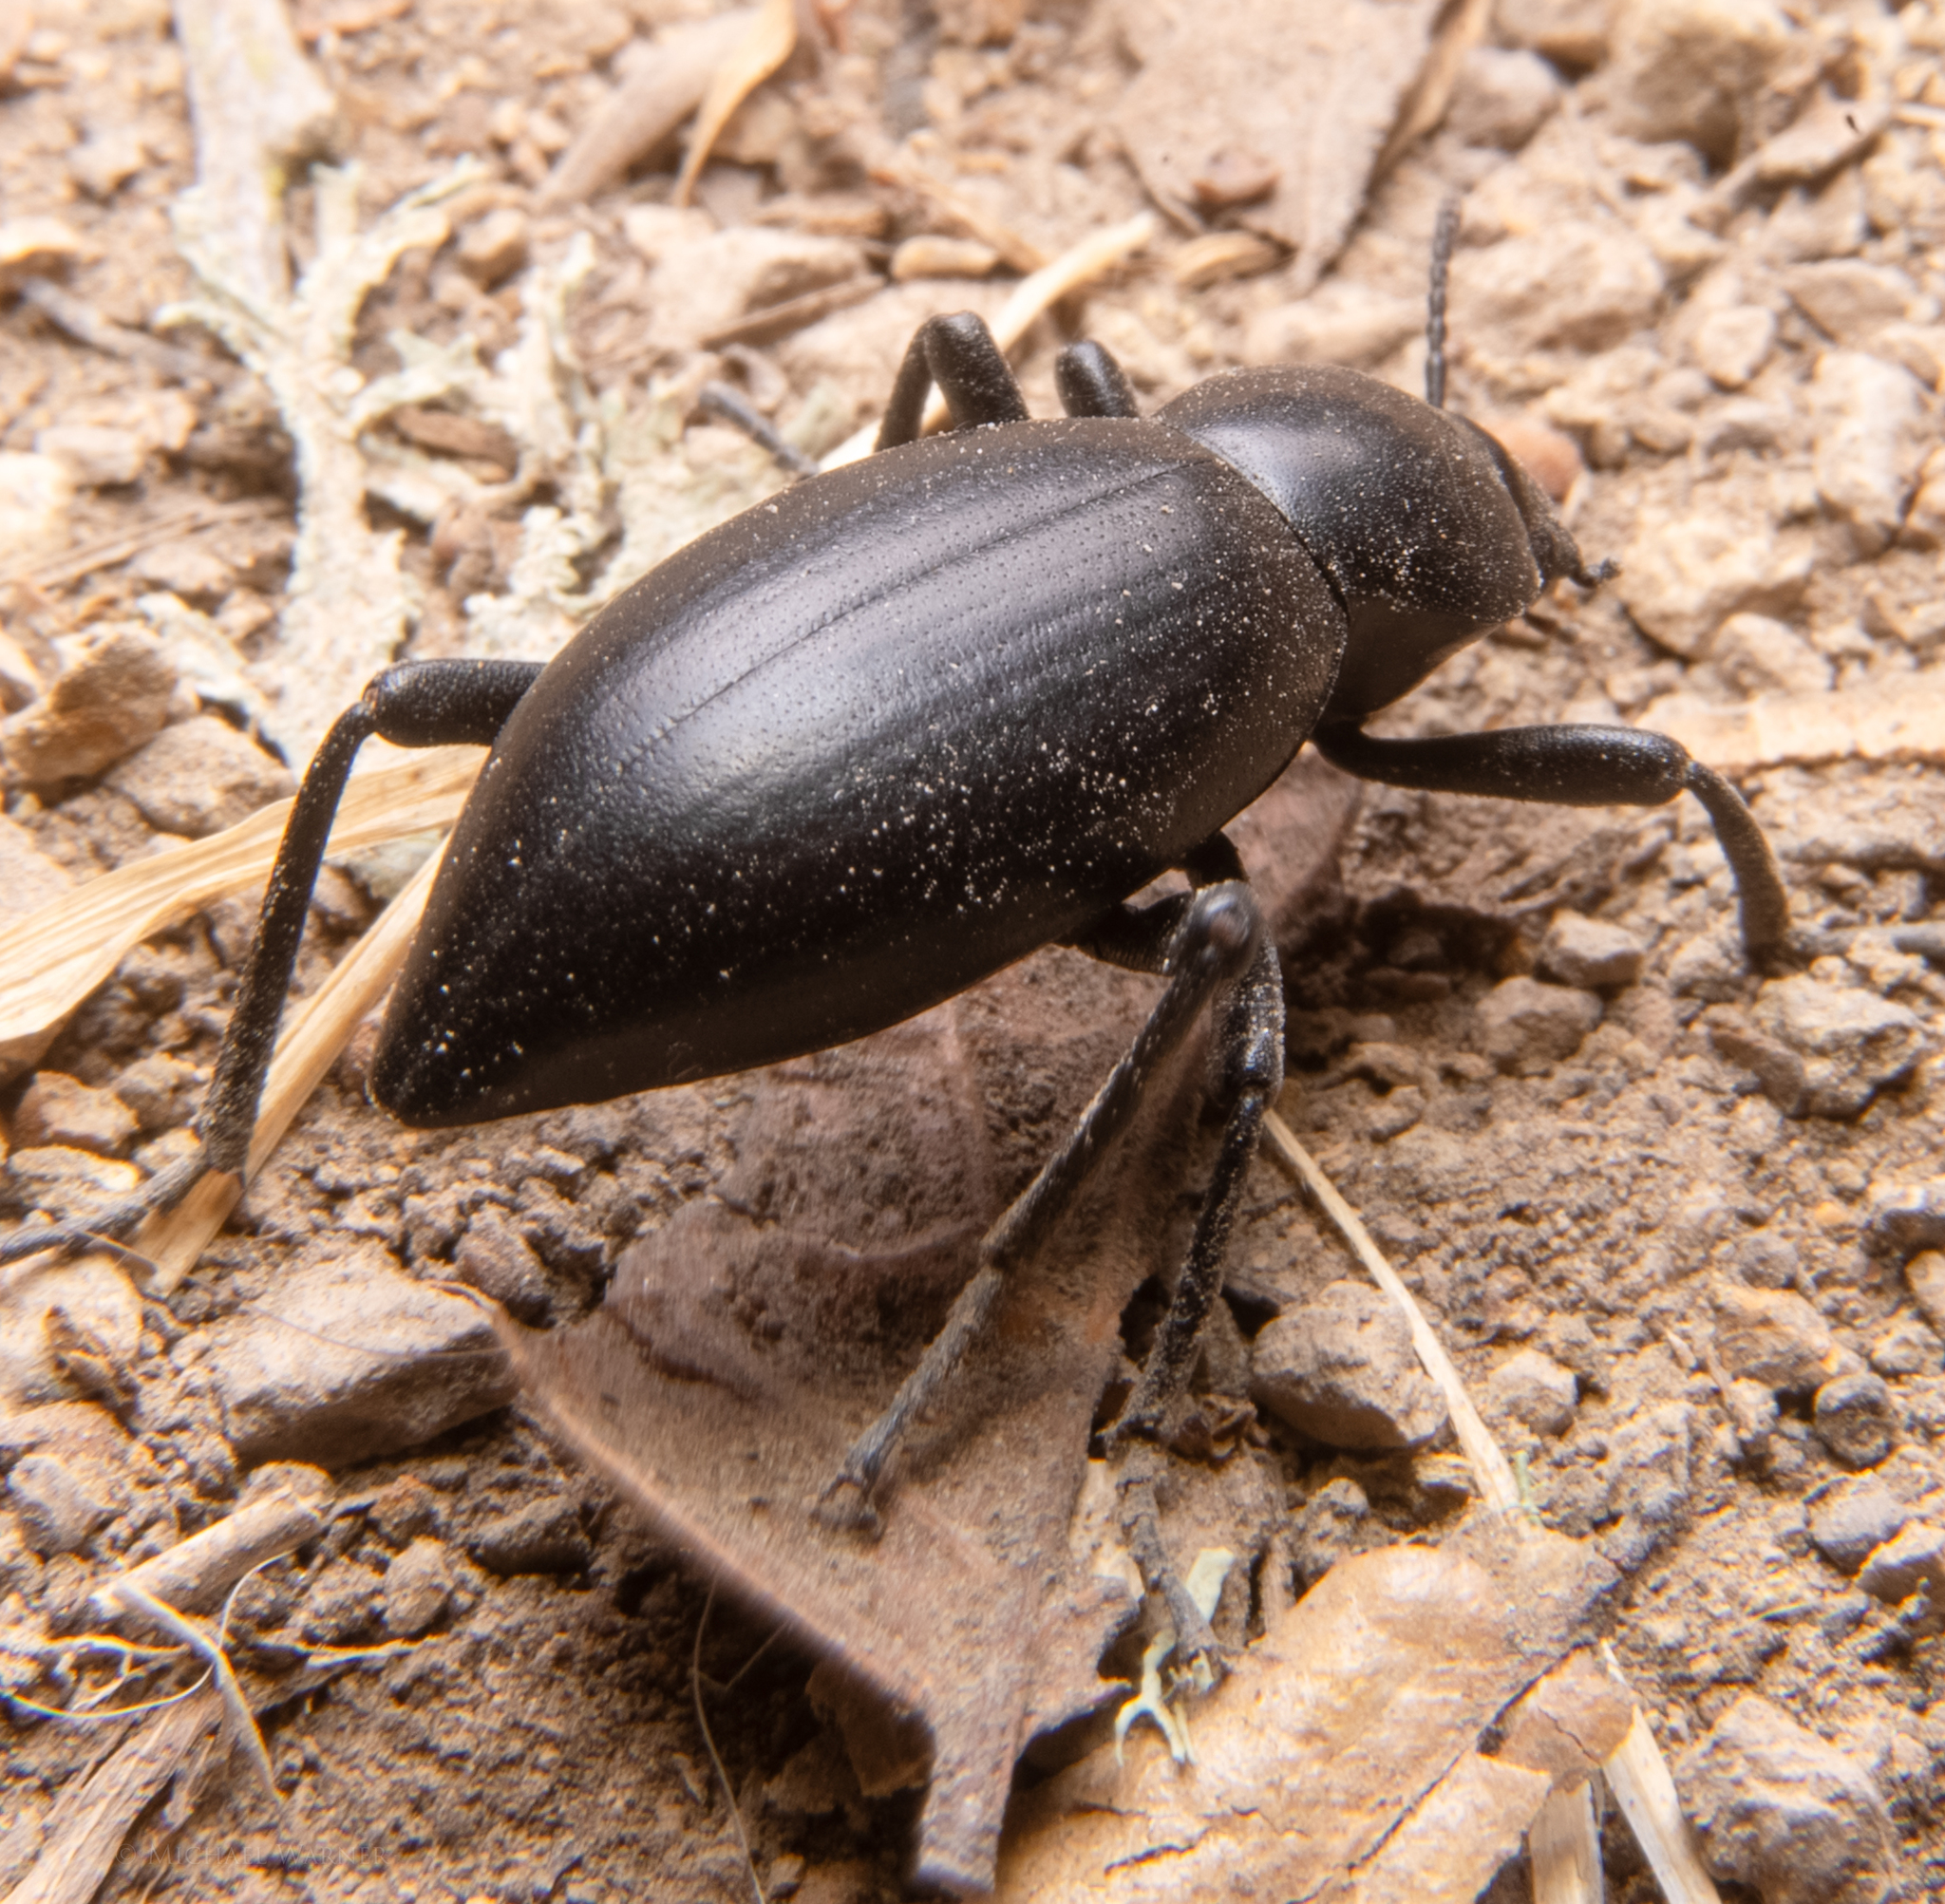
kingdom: Animalia
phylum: Arthropoda
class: Insecta
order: Coleoptera
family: Tenebrionidae
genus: Eleodes
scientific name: Eleodes dentipes
